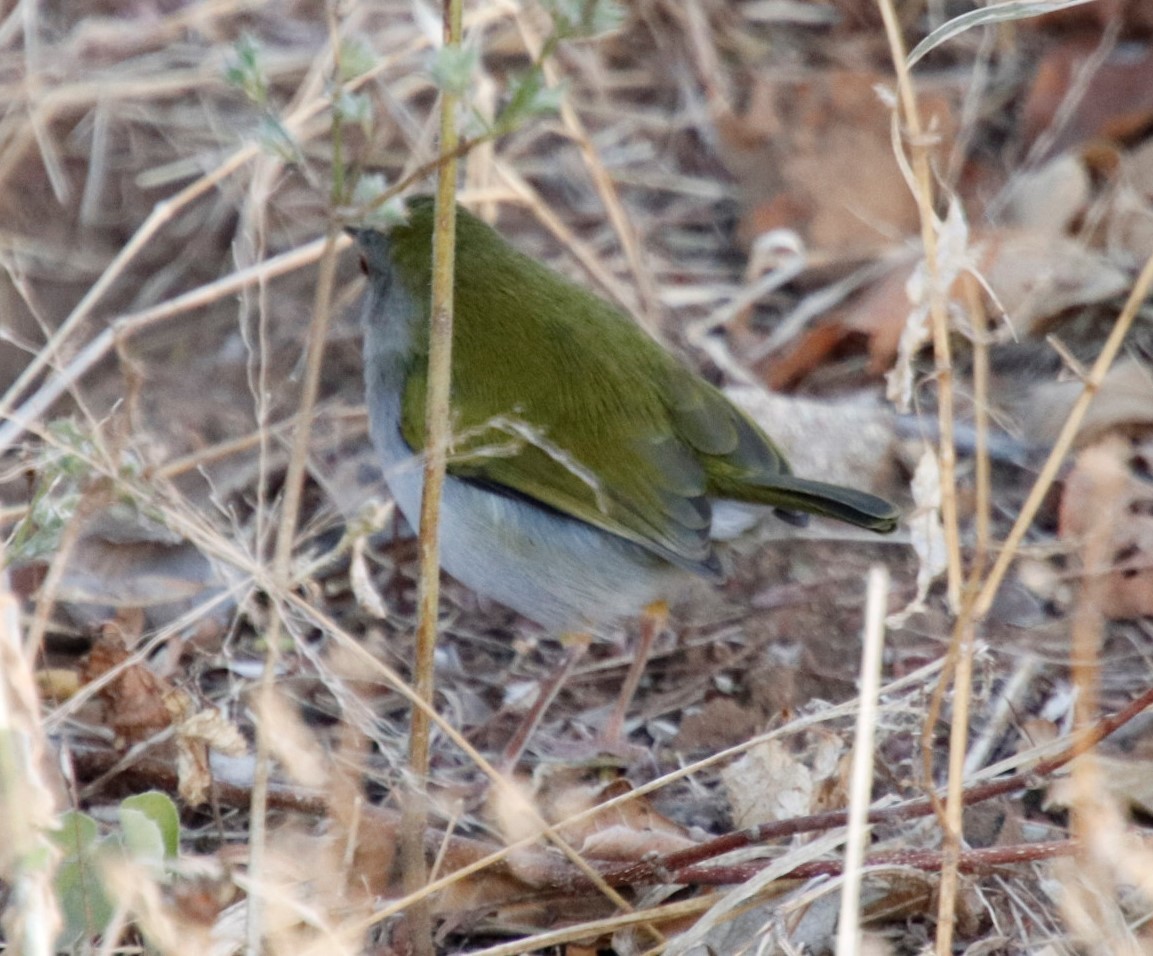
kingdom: Animalia
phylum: Chordata
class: Aves
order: Passeriformes
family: Cisticolidae
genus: Camaroptera
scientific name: Camaroptera brachyura
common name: Green-backed camaroptera
